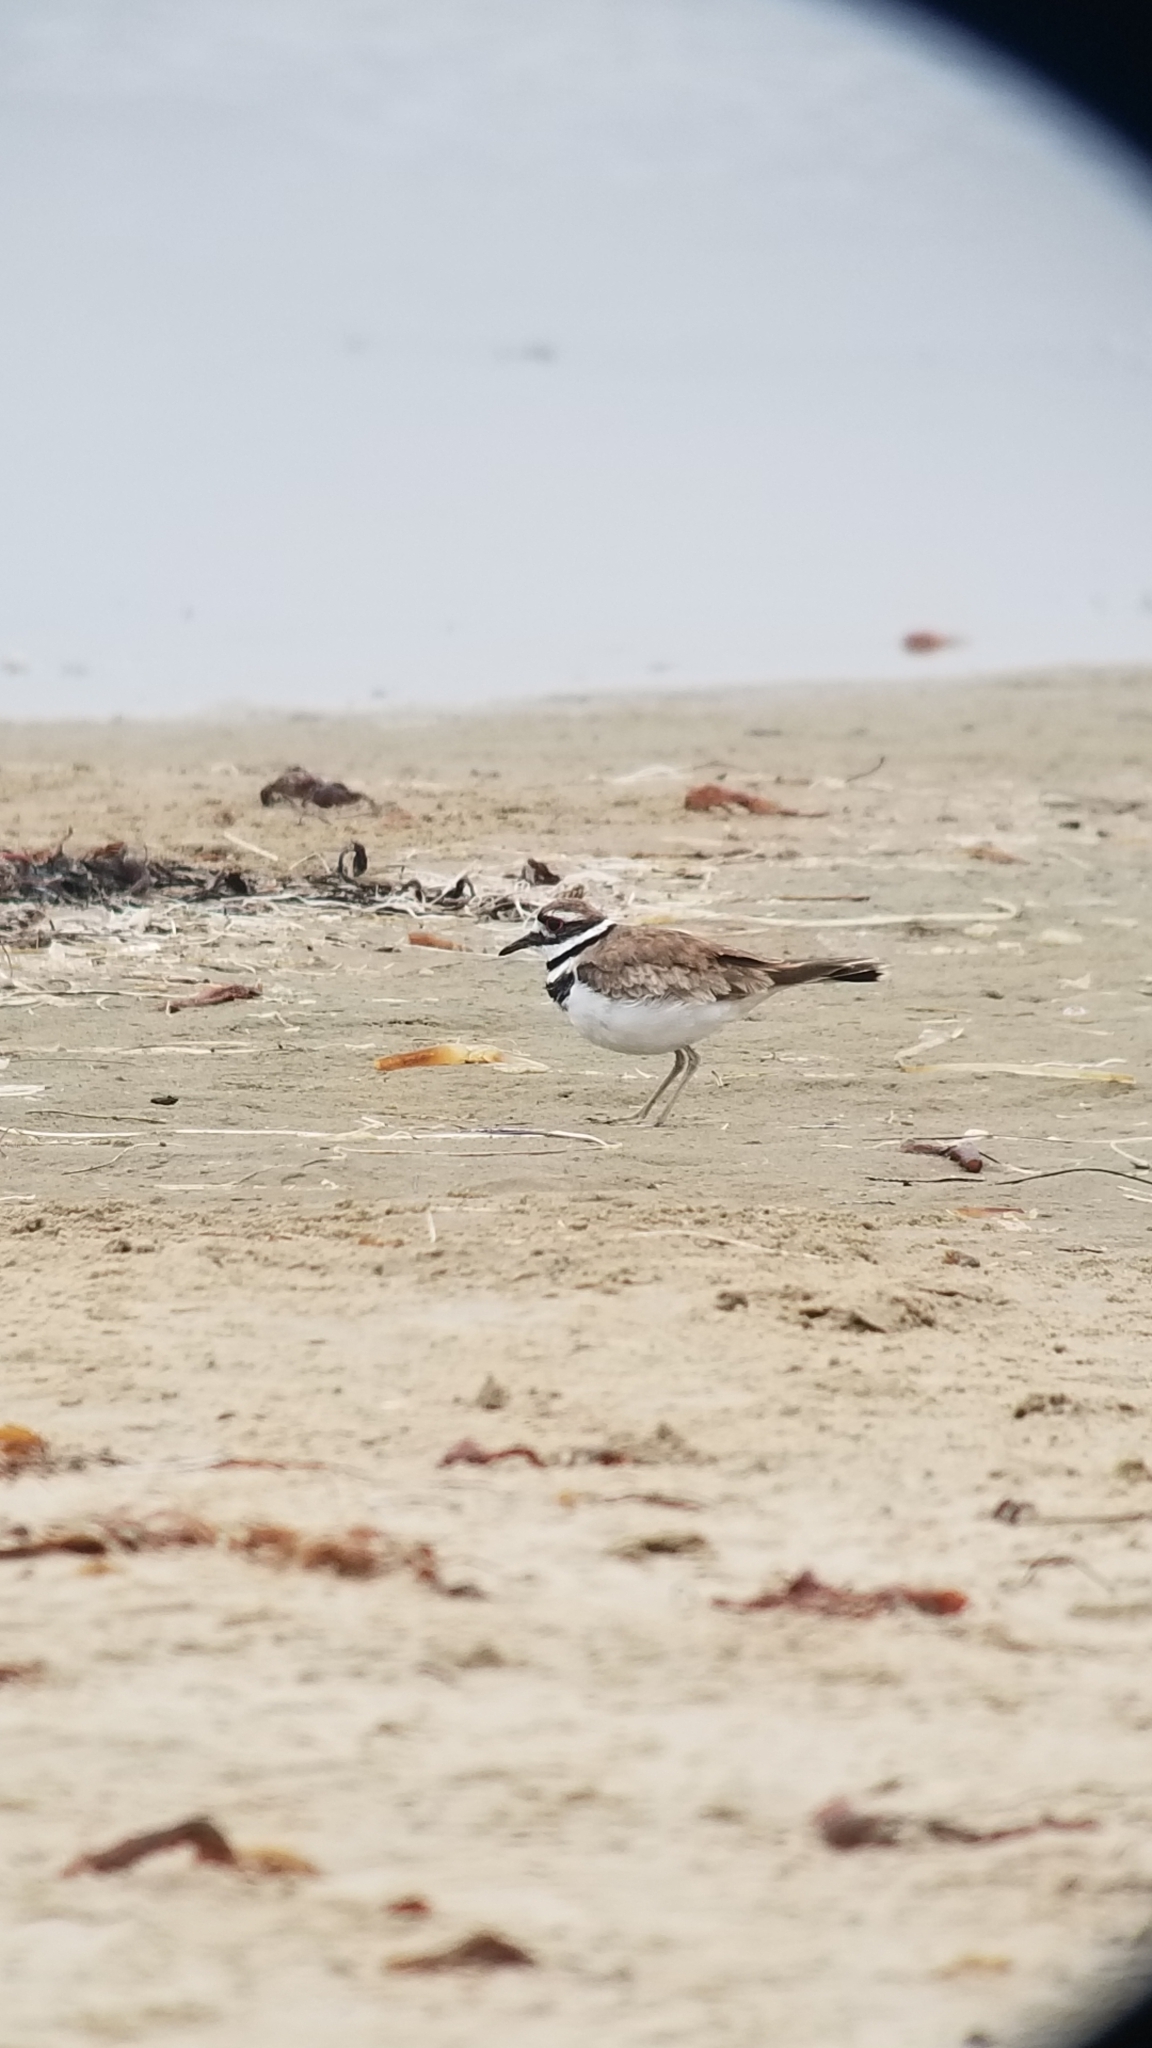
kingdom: Animalia
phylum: Chordata
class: Aves
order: Charadriiformes
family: Charadriidae
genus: Charadrius
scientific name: Charadrius vociferus
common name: Killdeer
